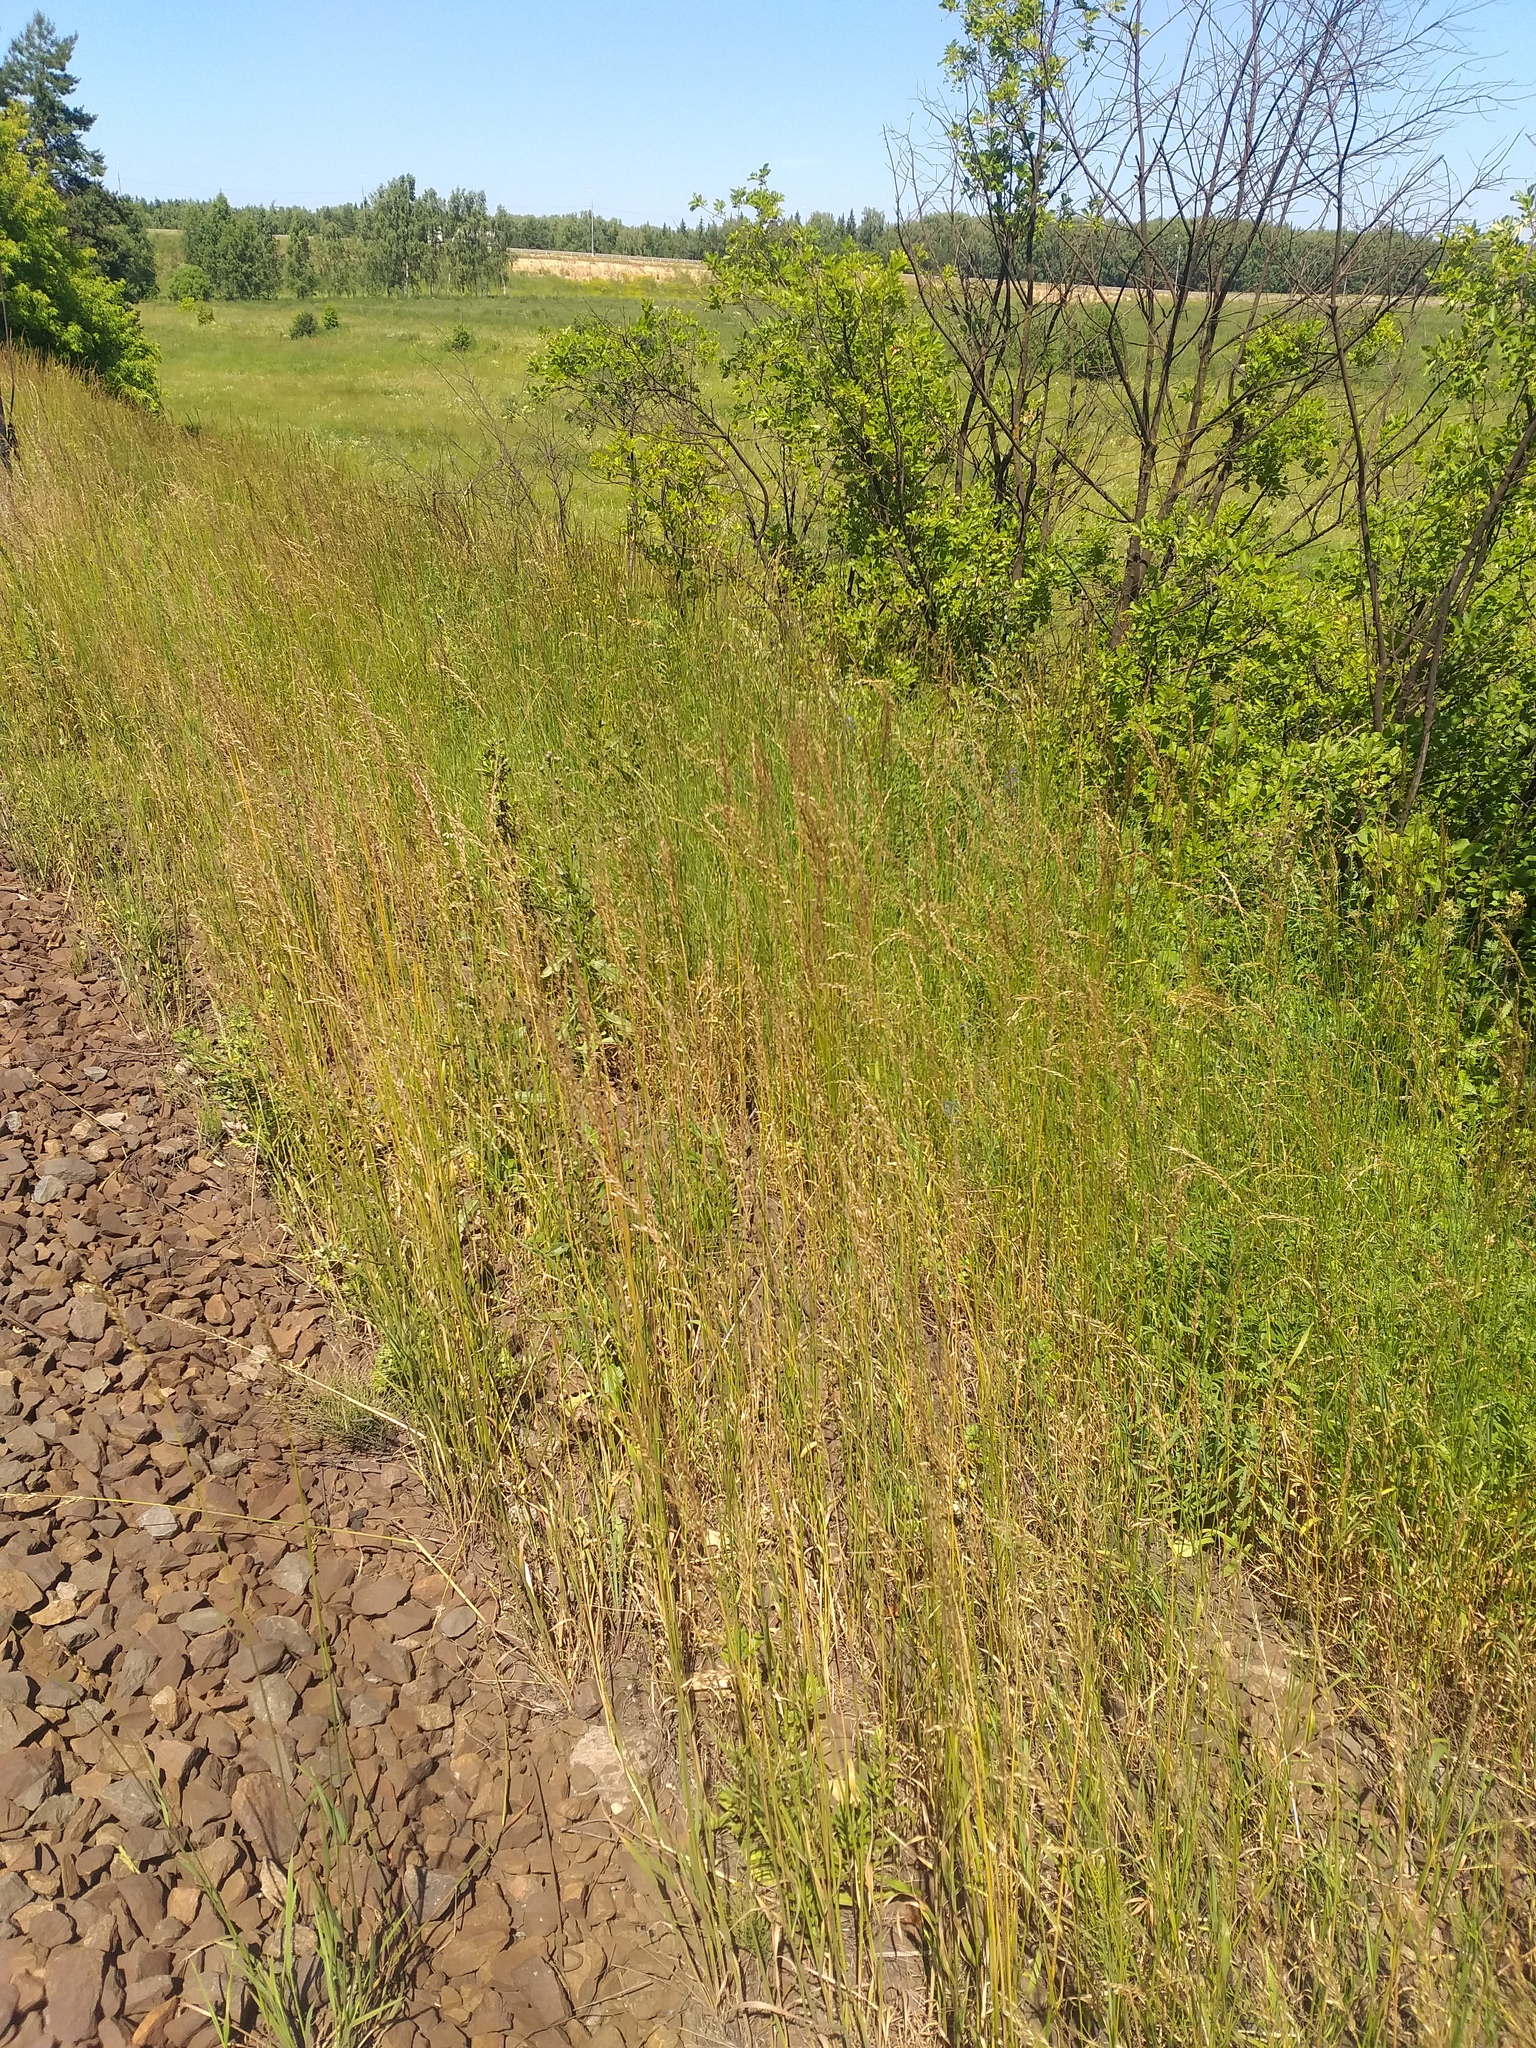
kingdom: Plantae
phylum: Tracheophyta
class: Liliopsida
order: Poales
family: Poaceae
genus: Arrhenatherum
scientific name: Arrhenatherum elatius
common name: Tall oatgrass
